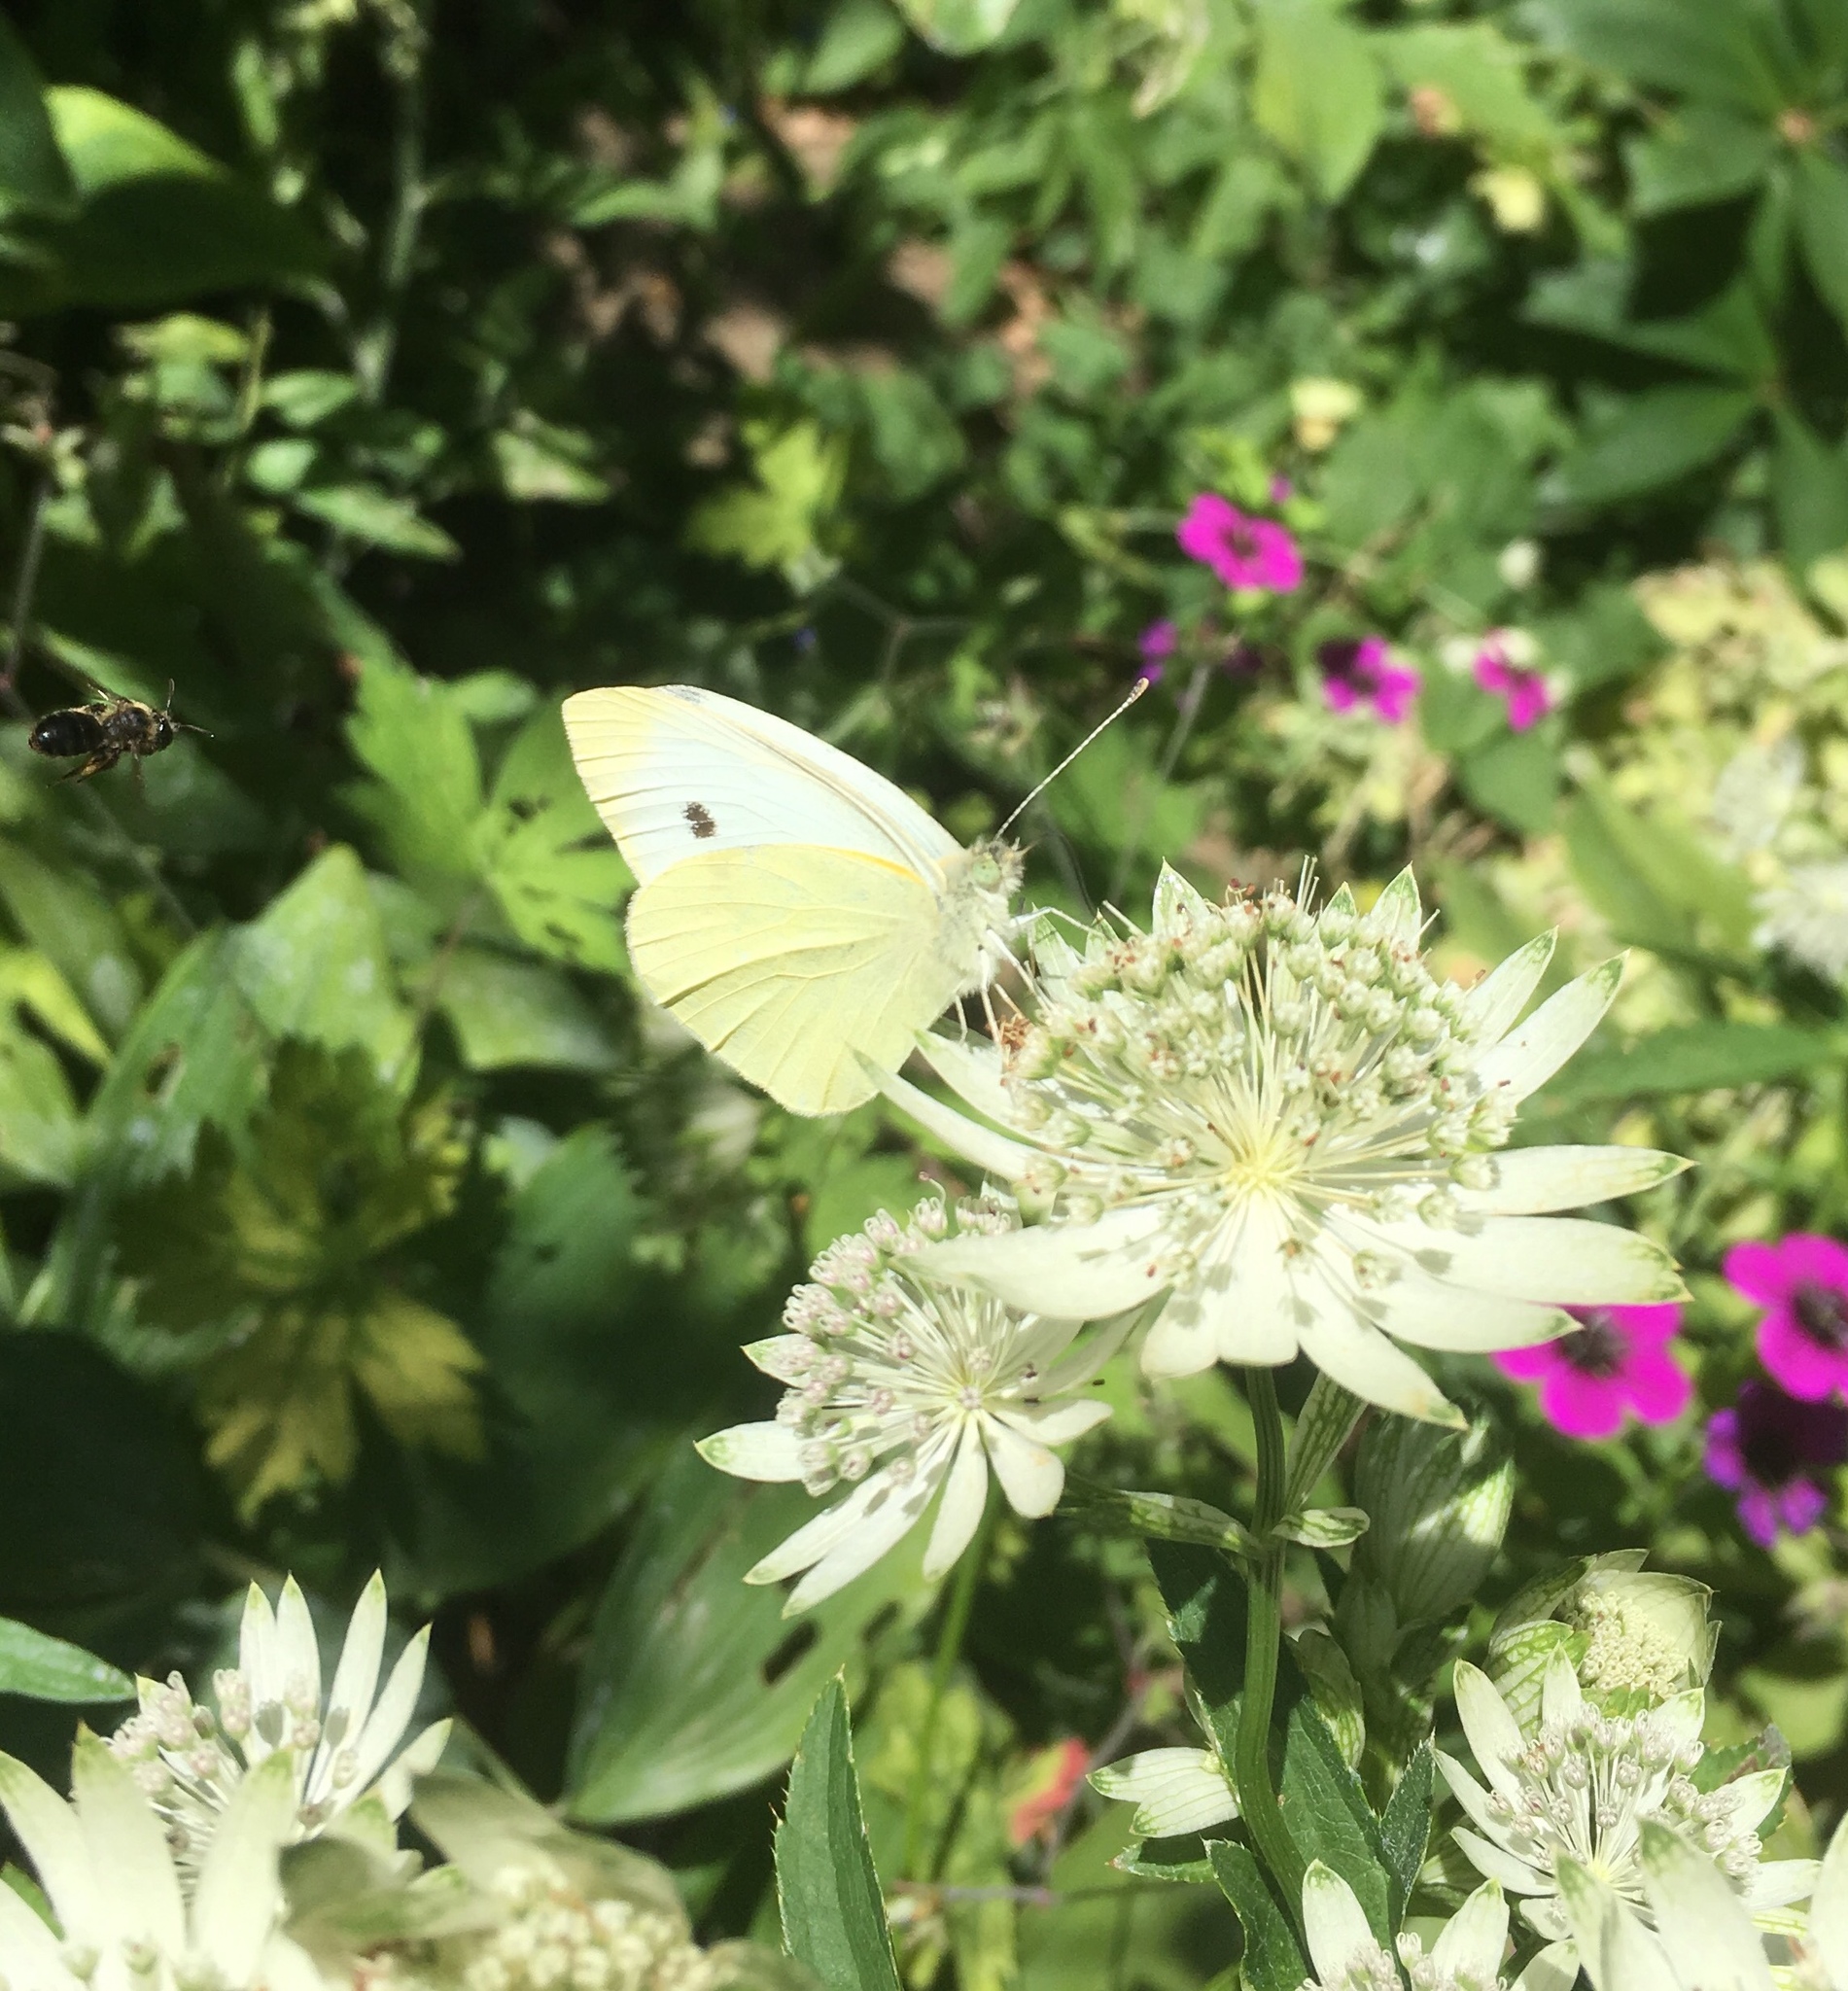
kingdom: Animalia
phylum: Arthropoda
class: Insecta
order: Lepidoptera
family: Pieridae
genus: Pieris
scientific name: Pieris rapae
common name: Small white
